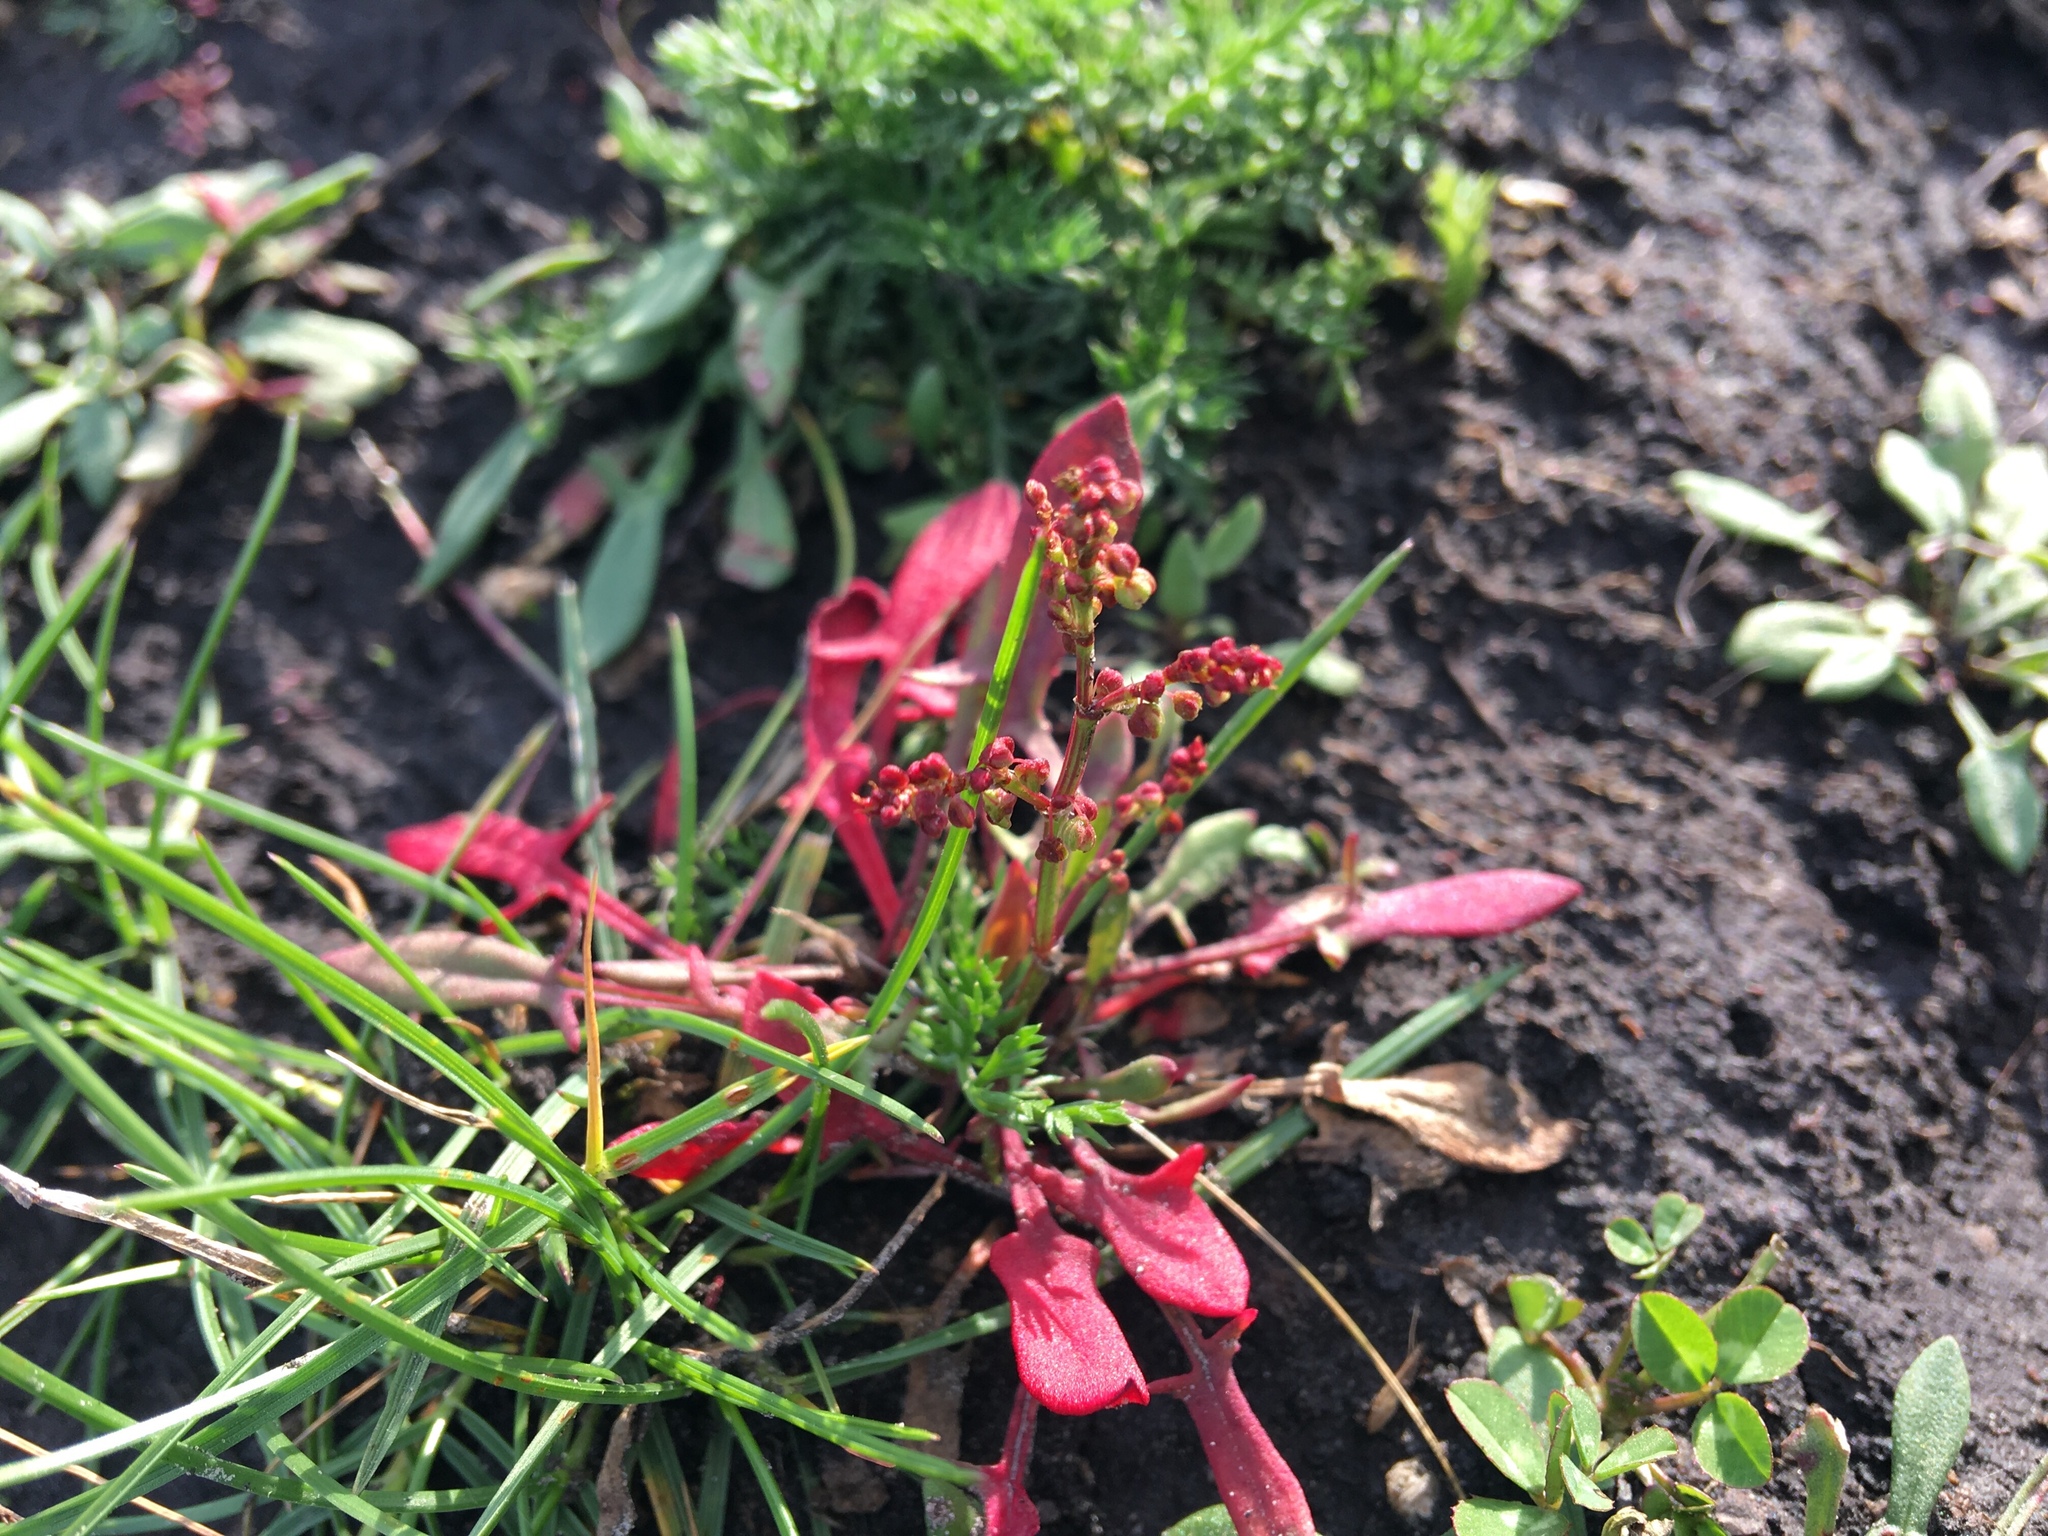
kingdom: Plantae
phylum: Tracheophyta
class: Magnoliopsida
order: Caryophyllales
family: Polygonaceae
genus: Rumex
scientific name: Rumex acetosella
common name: Common sheep sorrel
